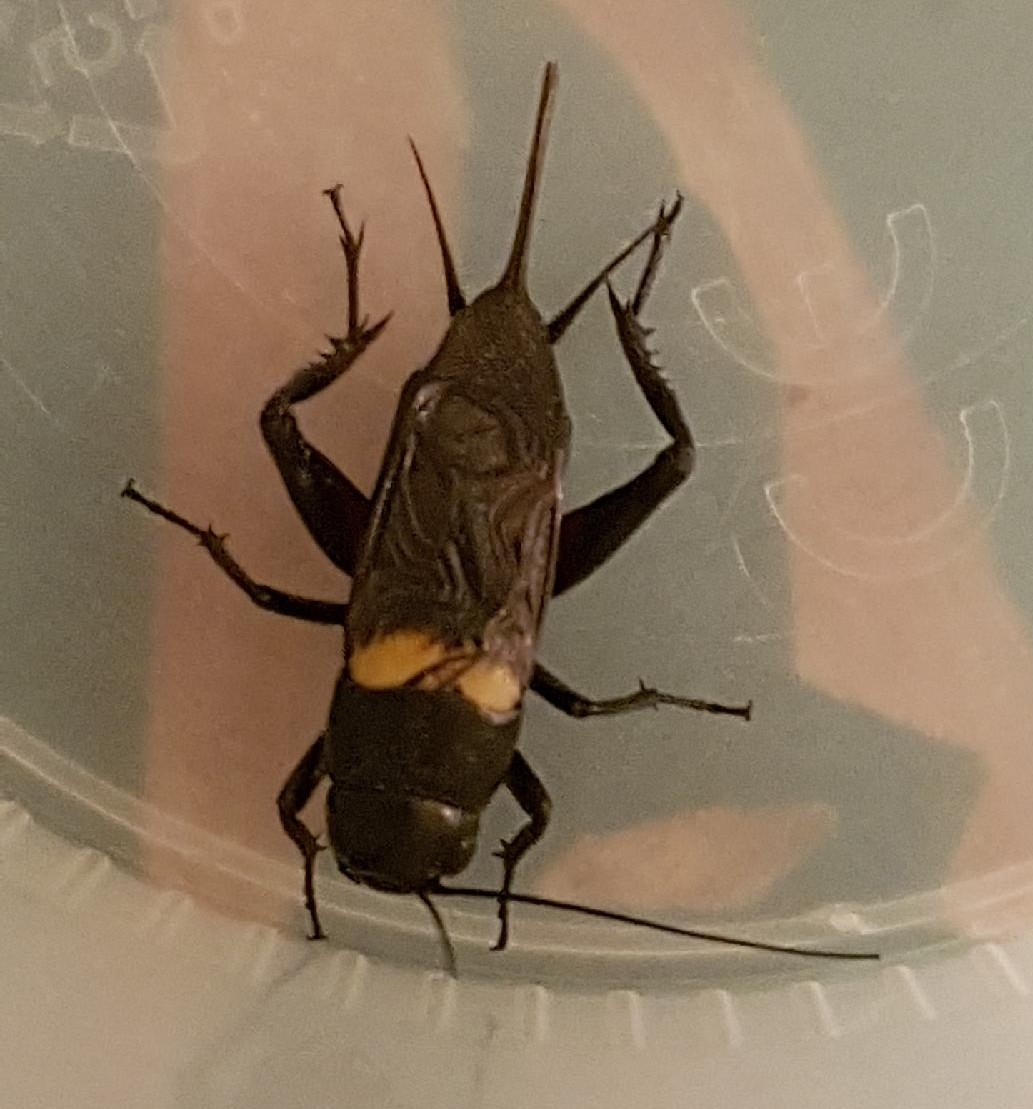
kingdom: Animalia
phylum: Arthropoda
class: Insecta
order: Orthoptera
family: Gryllidae
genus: Gryllus
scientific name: Gryllus bimaculatus
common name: Two-spotted cricket
